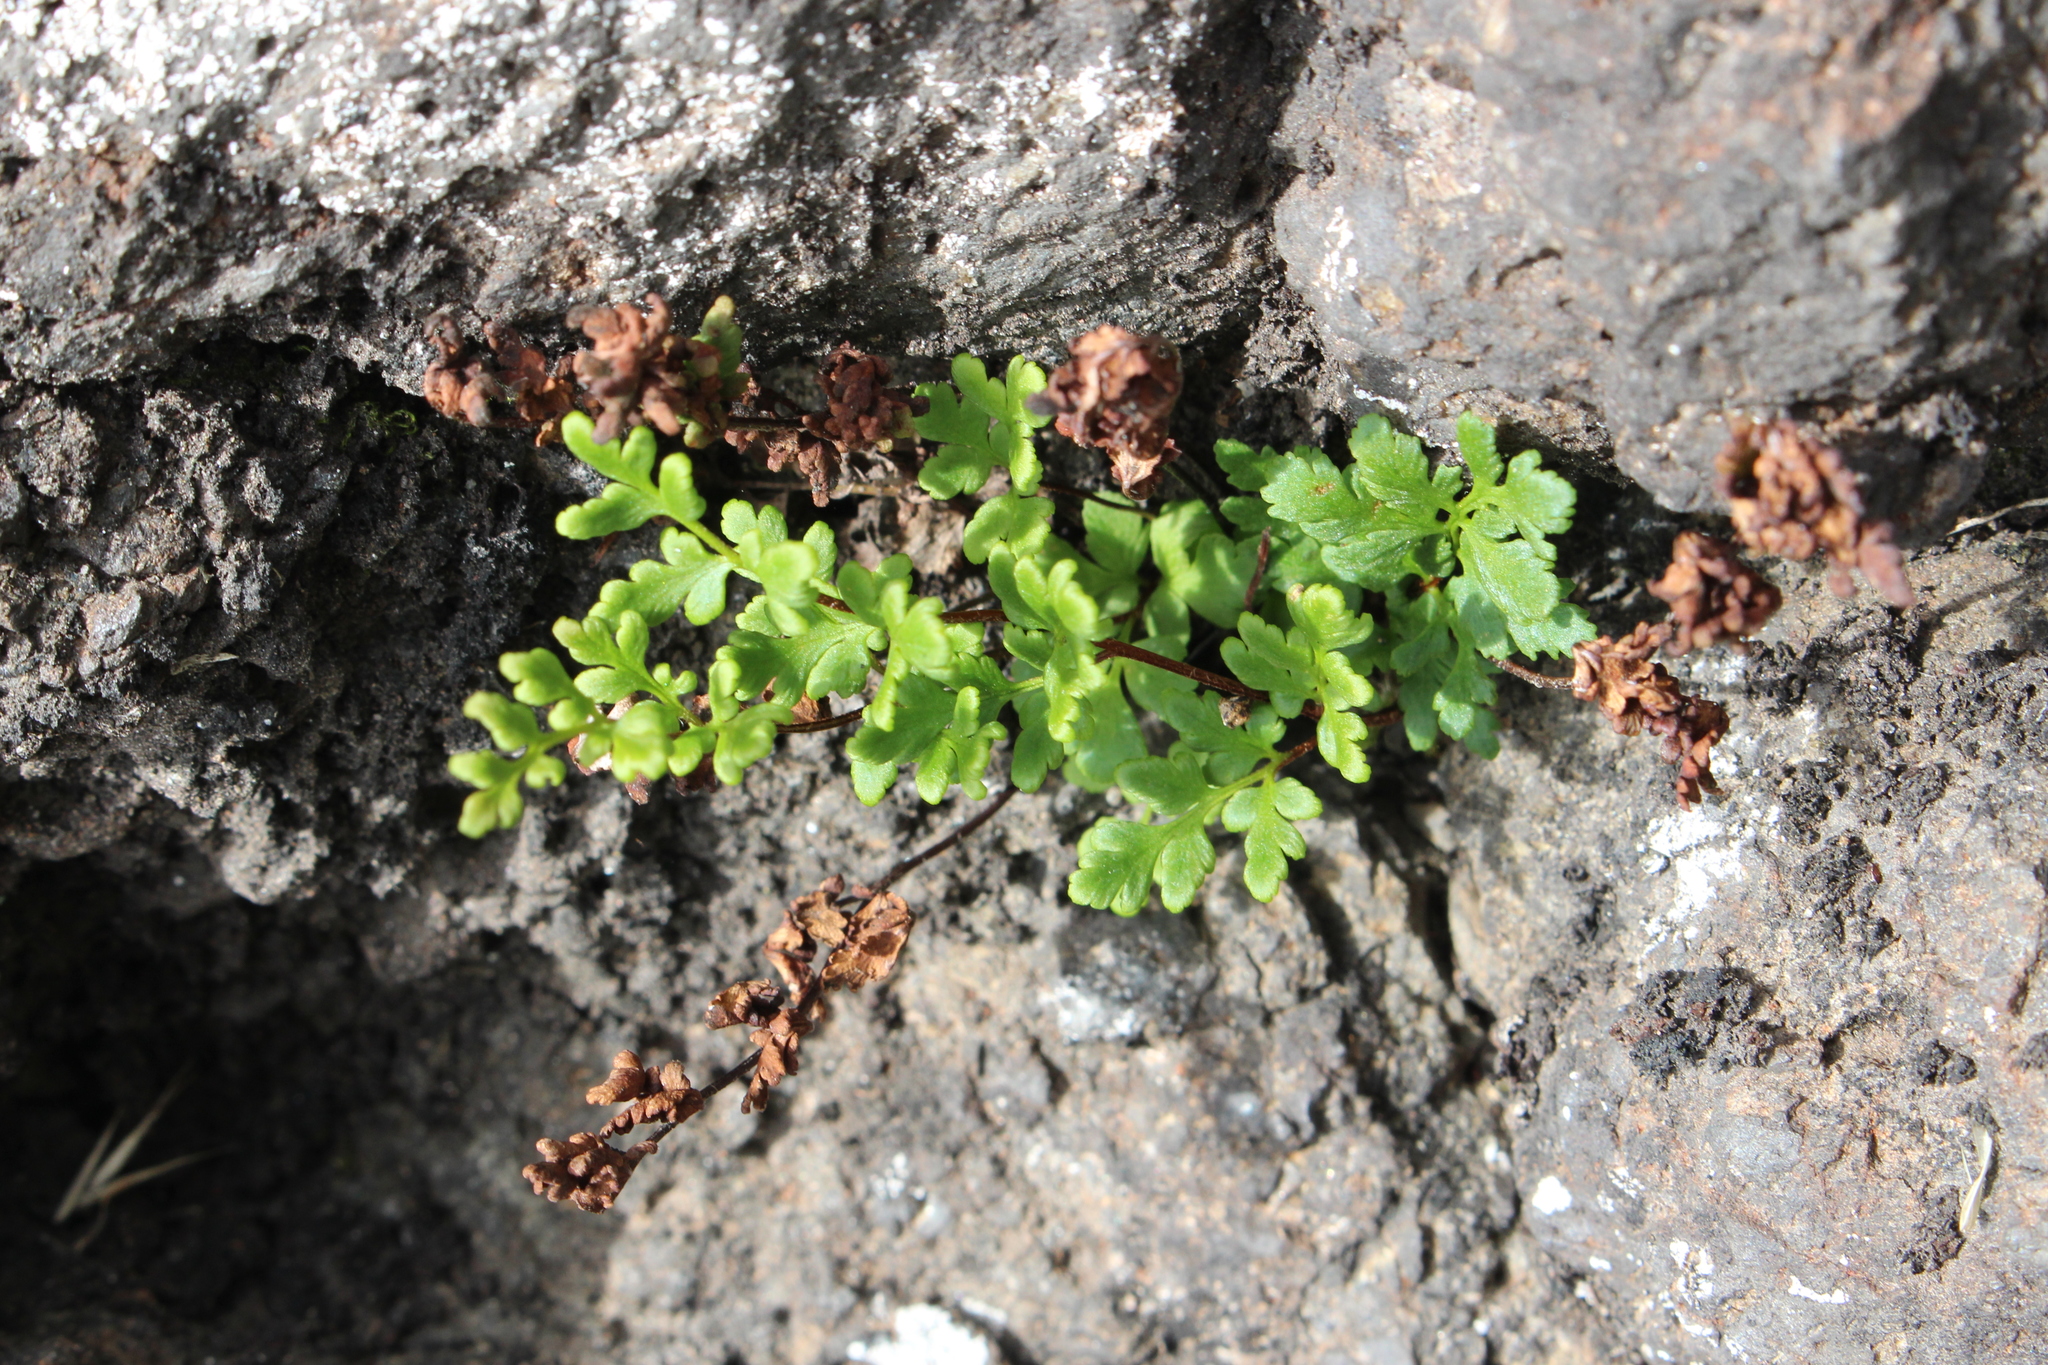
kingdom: Plantae
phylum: Tracheophyta
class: Polypodiopsida
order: Polypodiales
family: Pteridaceae
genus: Cheilanthes
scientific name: Cheilanthes sieberi
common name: Mulga fern
